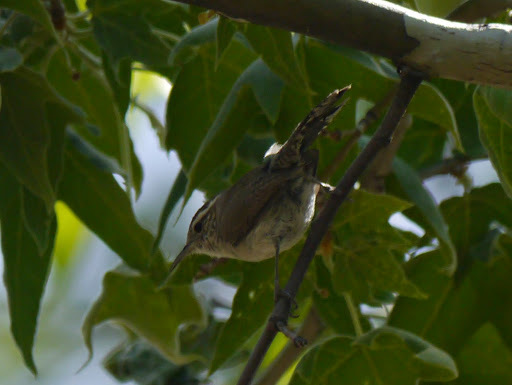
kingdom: Animalia
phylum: Chordata
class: Aves
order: Passeriformes
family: Troglodytidae
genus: Thryomanes
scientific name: Thryomanes bewickii
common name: Bewick's wren
